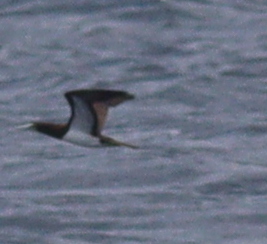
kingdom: Animalia
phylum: Chordata
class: Aves
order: Suliformes
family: Sulidae
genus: Sula
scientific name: Sula leucogaster
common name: Brown booby
